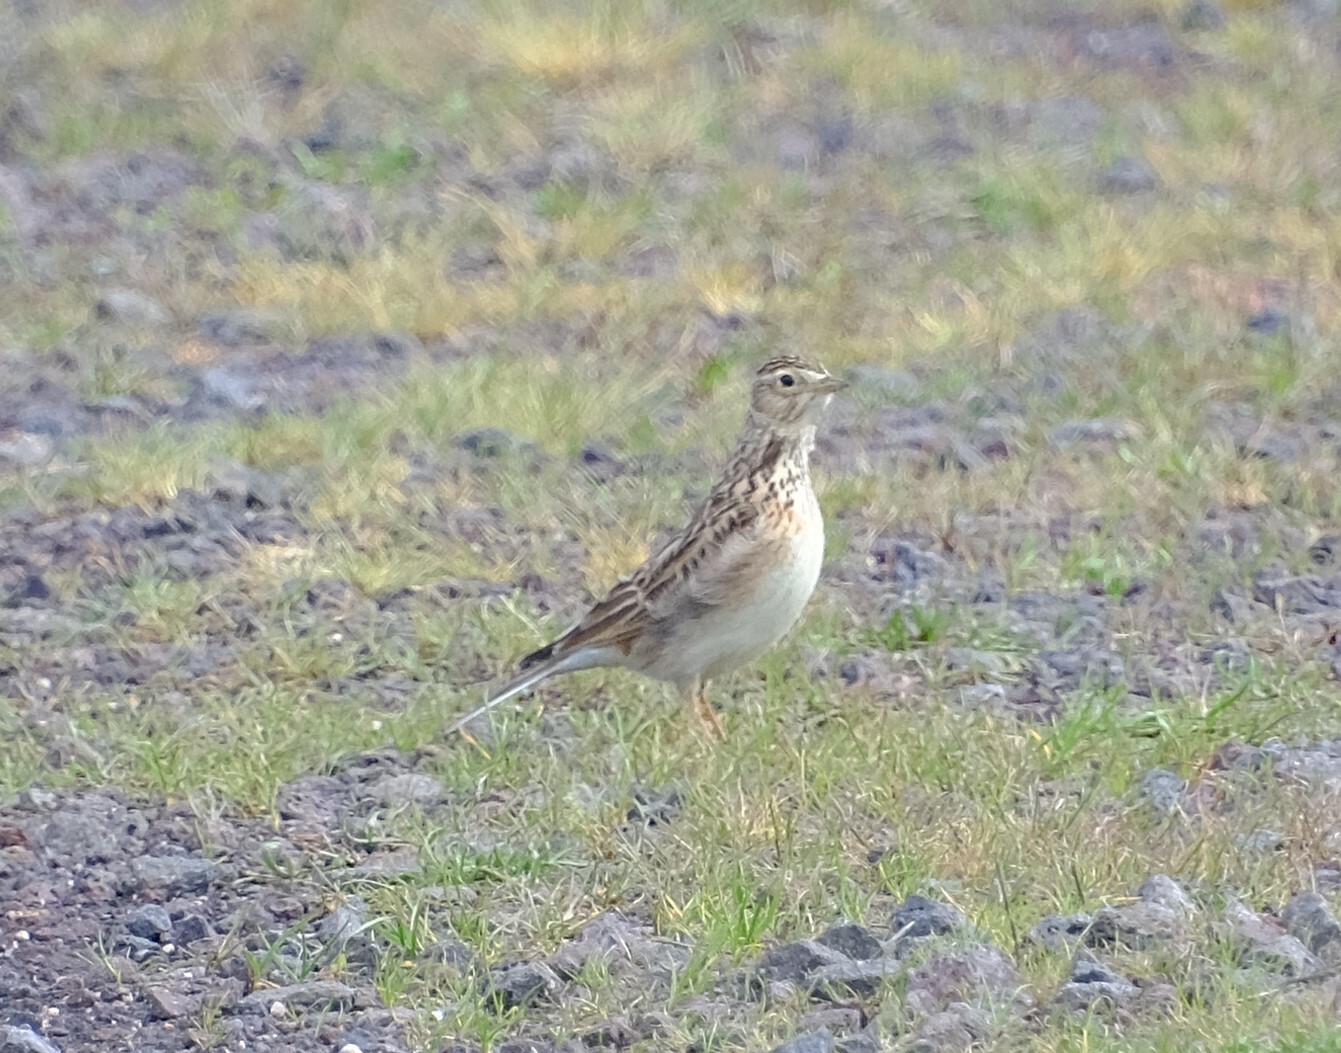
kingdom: Animalia
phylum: Chordata
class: Aves
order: Passeriformes
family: Motacillidae
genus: Anthus
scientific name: Anthus australis
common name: Australian pipit
